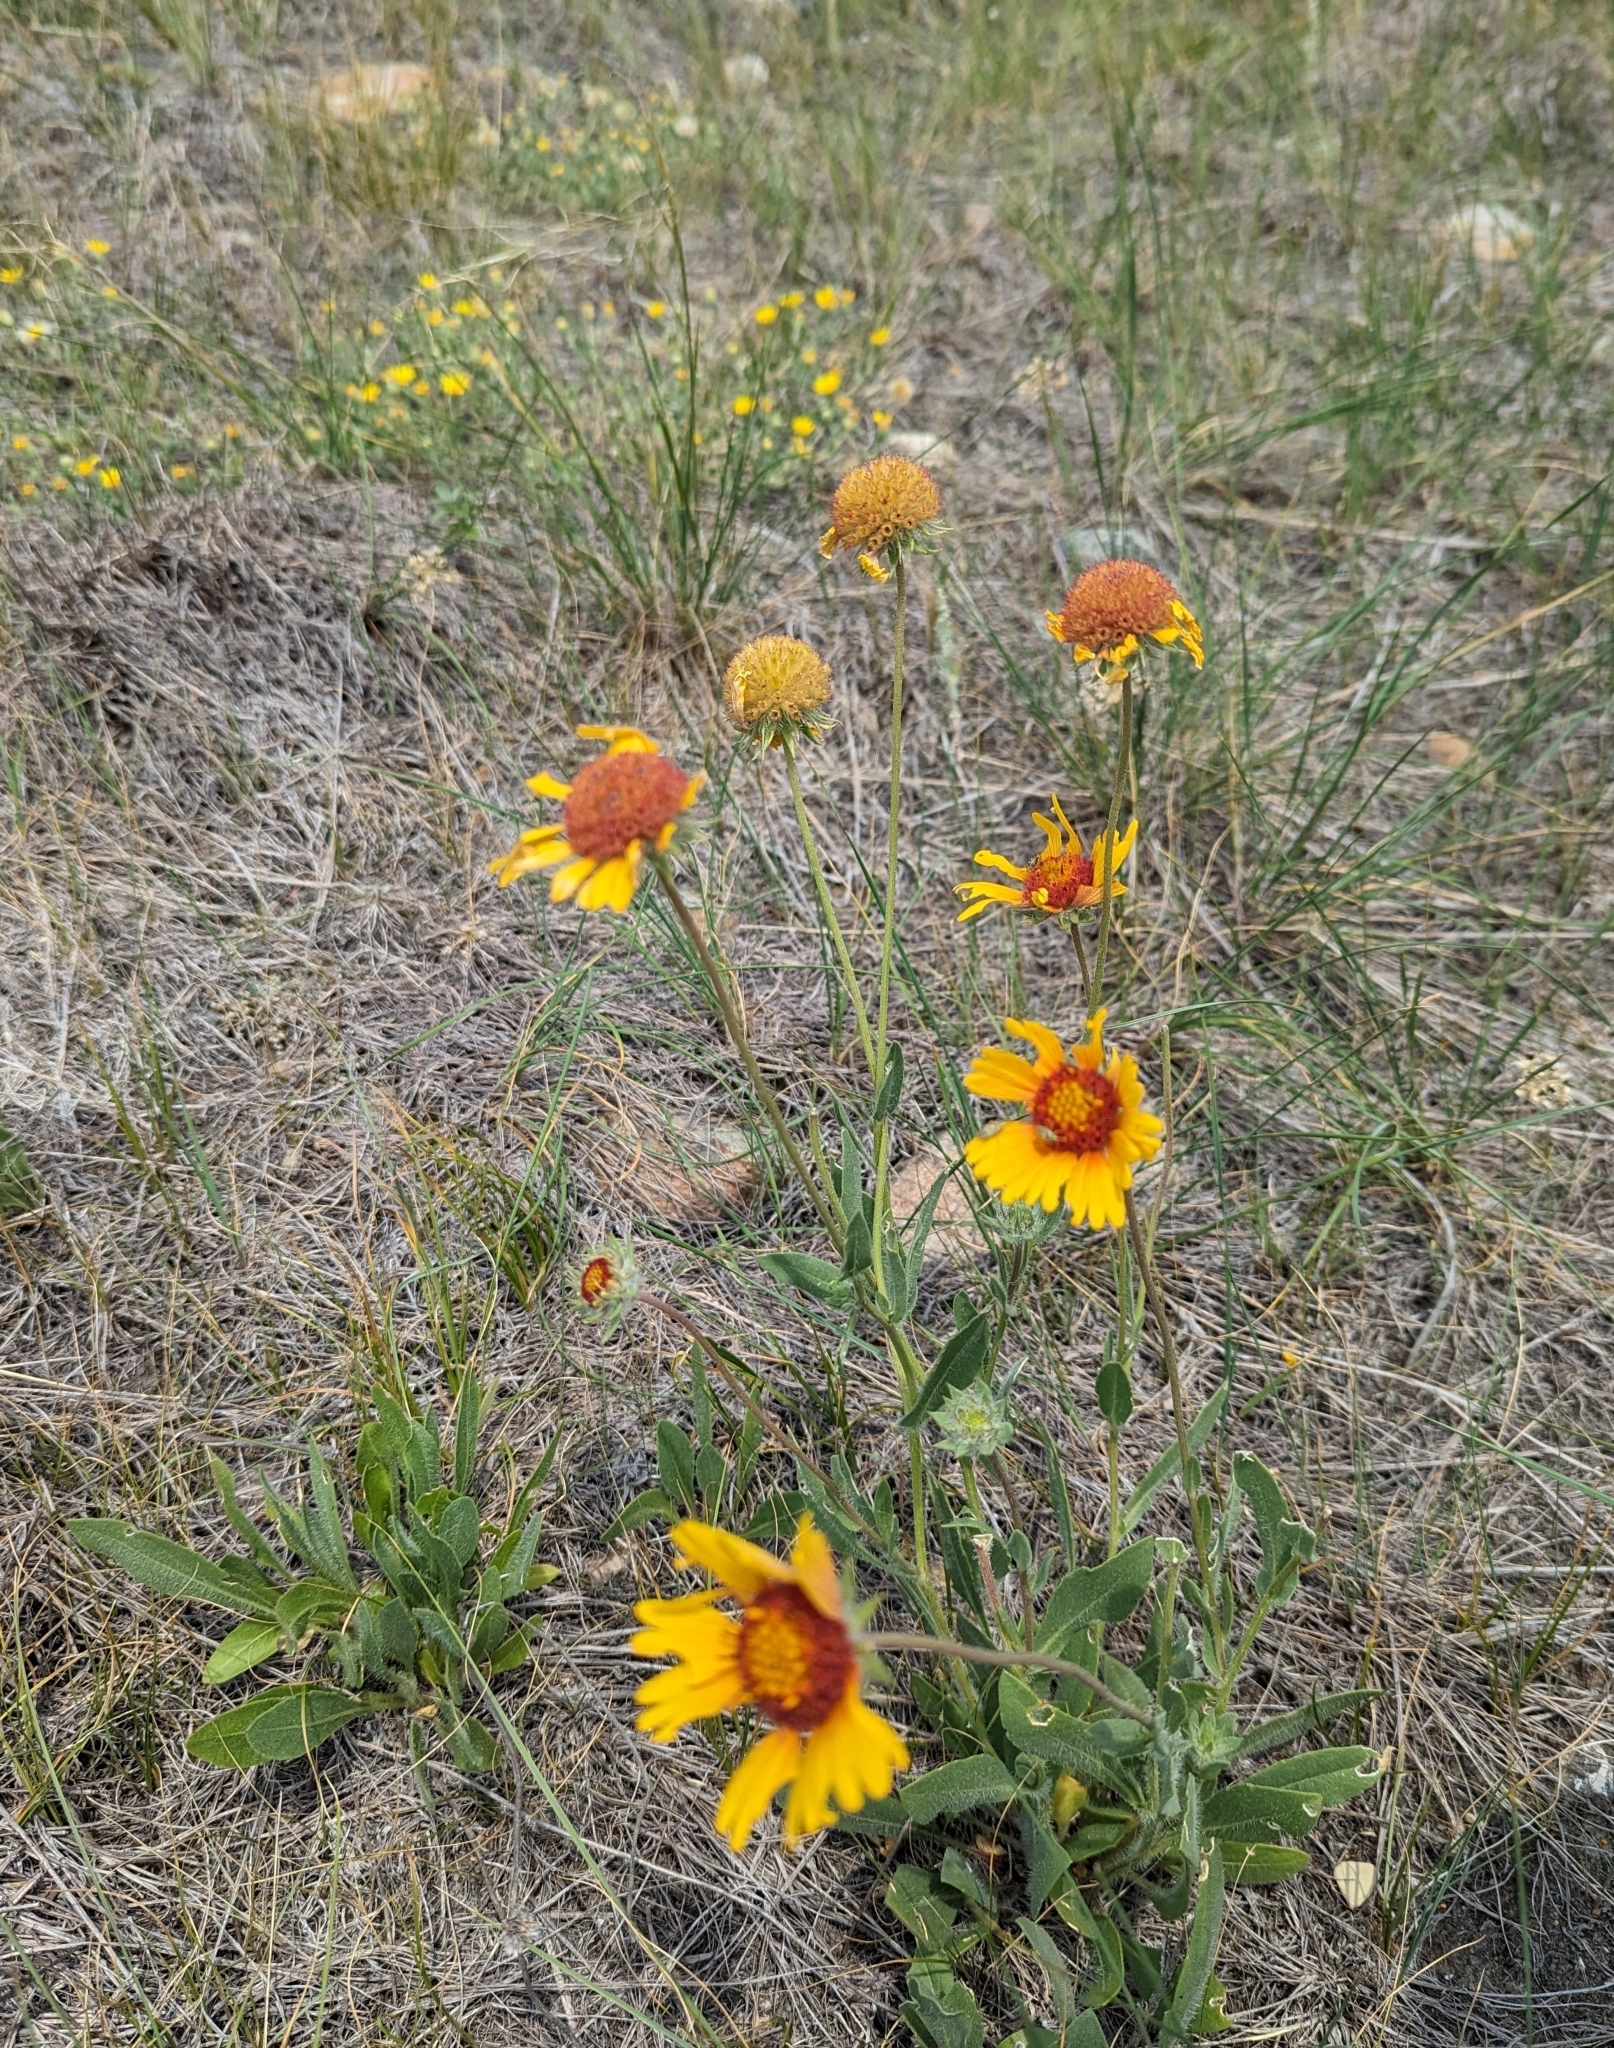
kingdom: Plantae
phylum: Tracheophyta
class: Magnoliopsida
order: Asterales
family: Asteraceae
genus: Gaillardia
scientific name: Gaillardia aristata
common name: Blanket-flower
